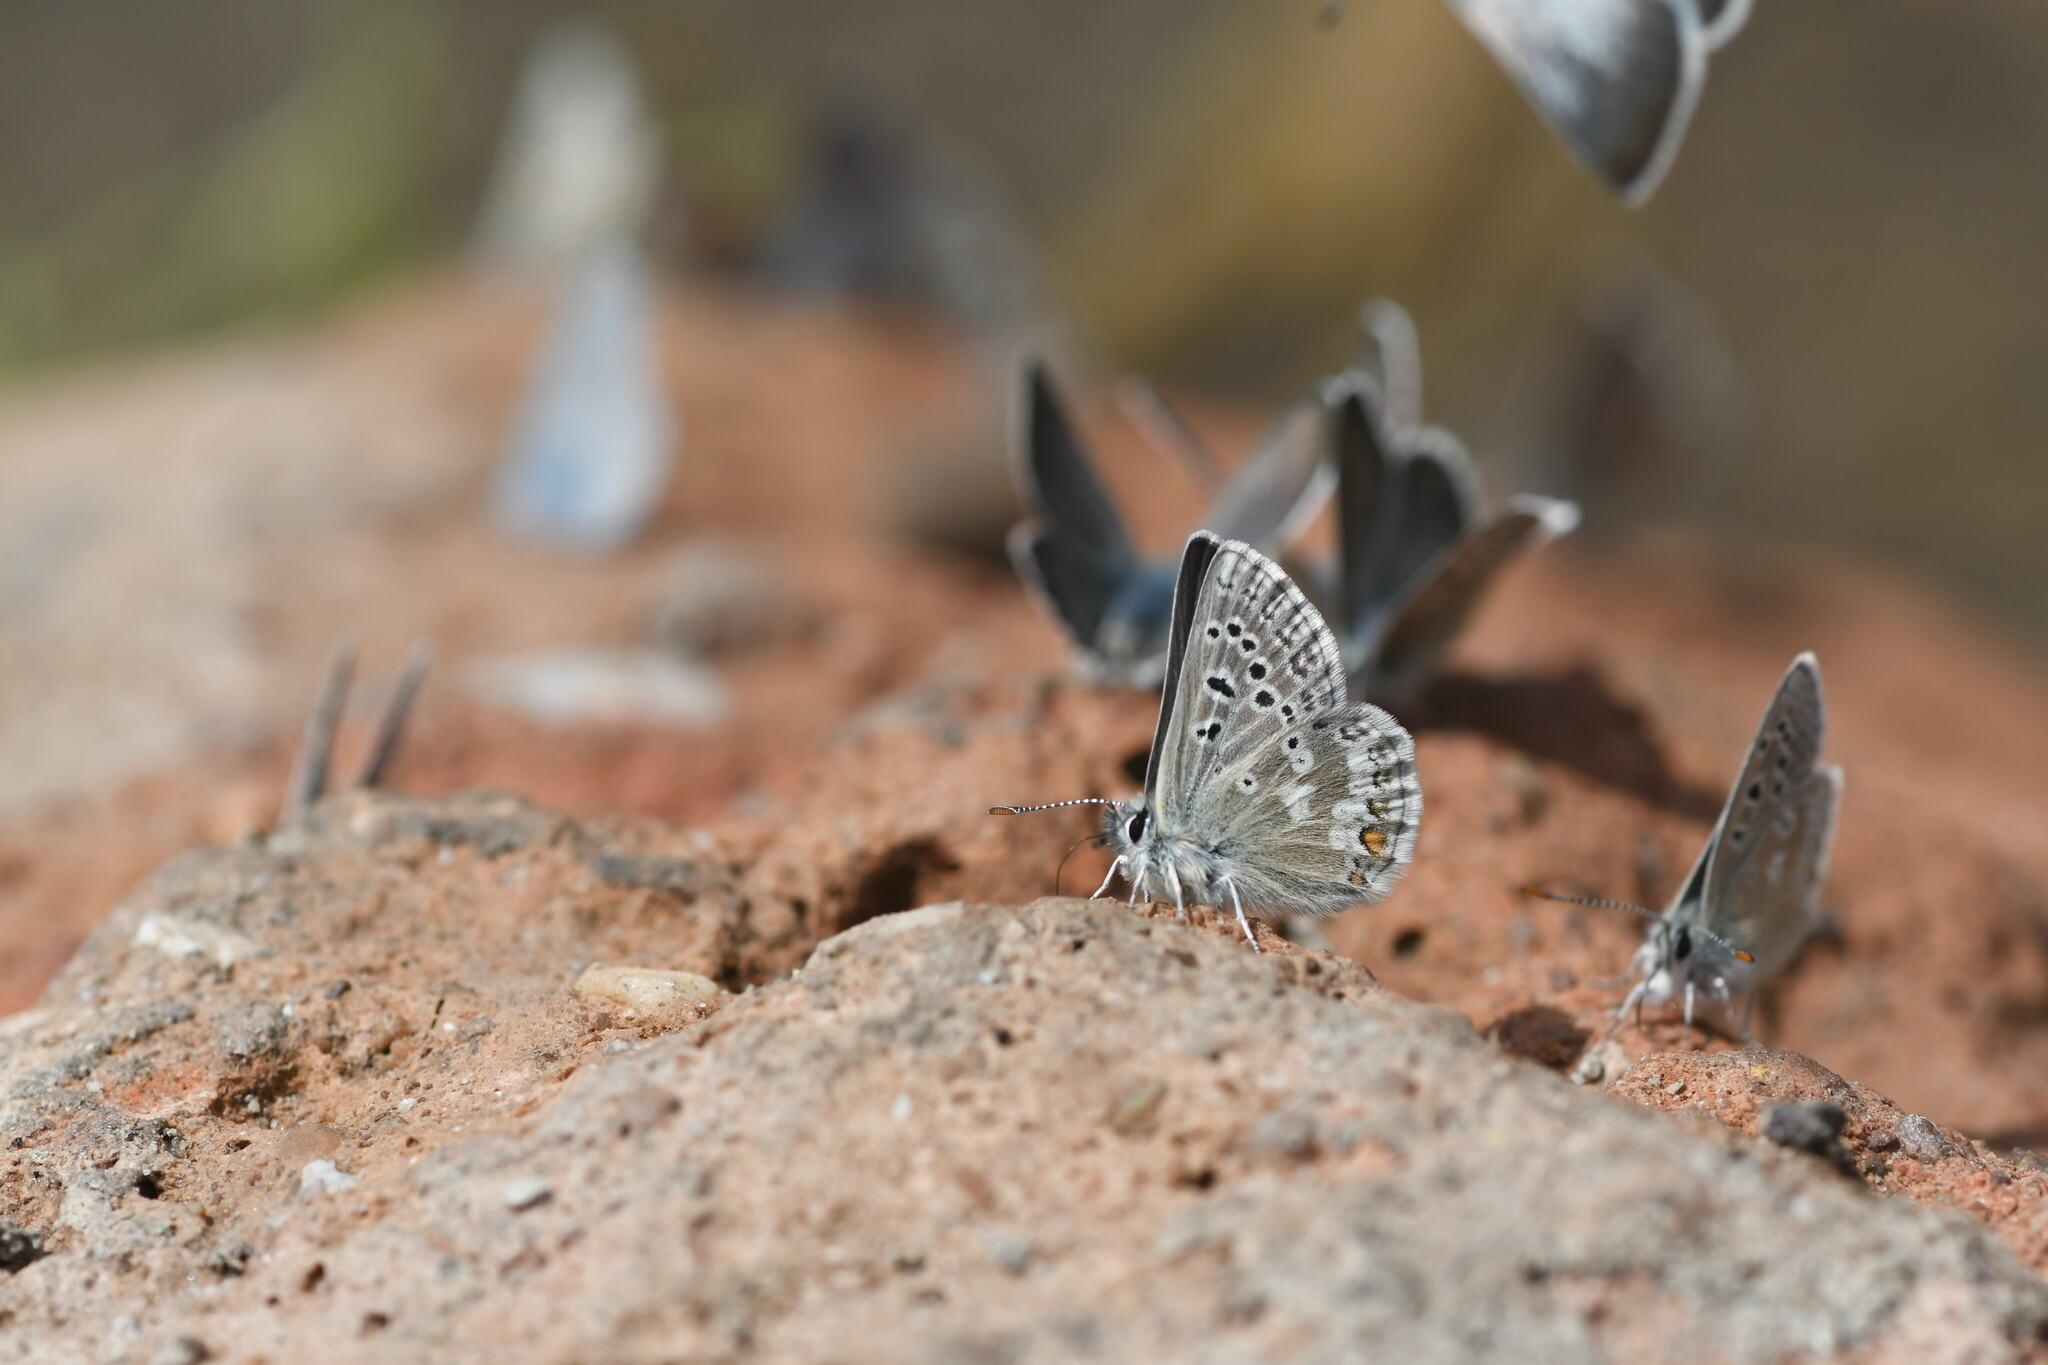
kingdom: Animalia
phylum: Arthropoda
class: Insecta
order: Lepidoptera
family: Lycaenidae
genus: Agriades
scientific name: Agriades glandon
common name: Glandon blue
